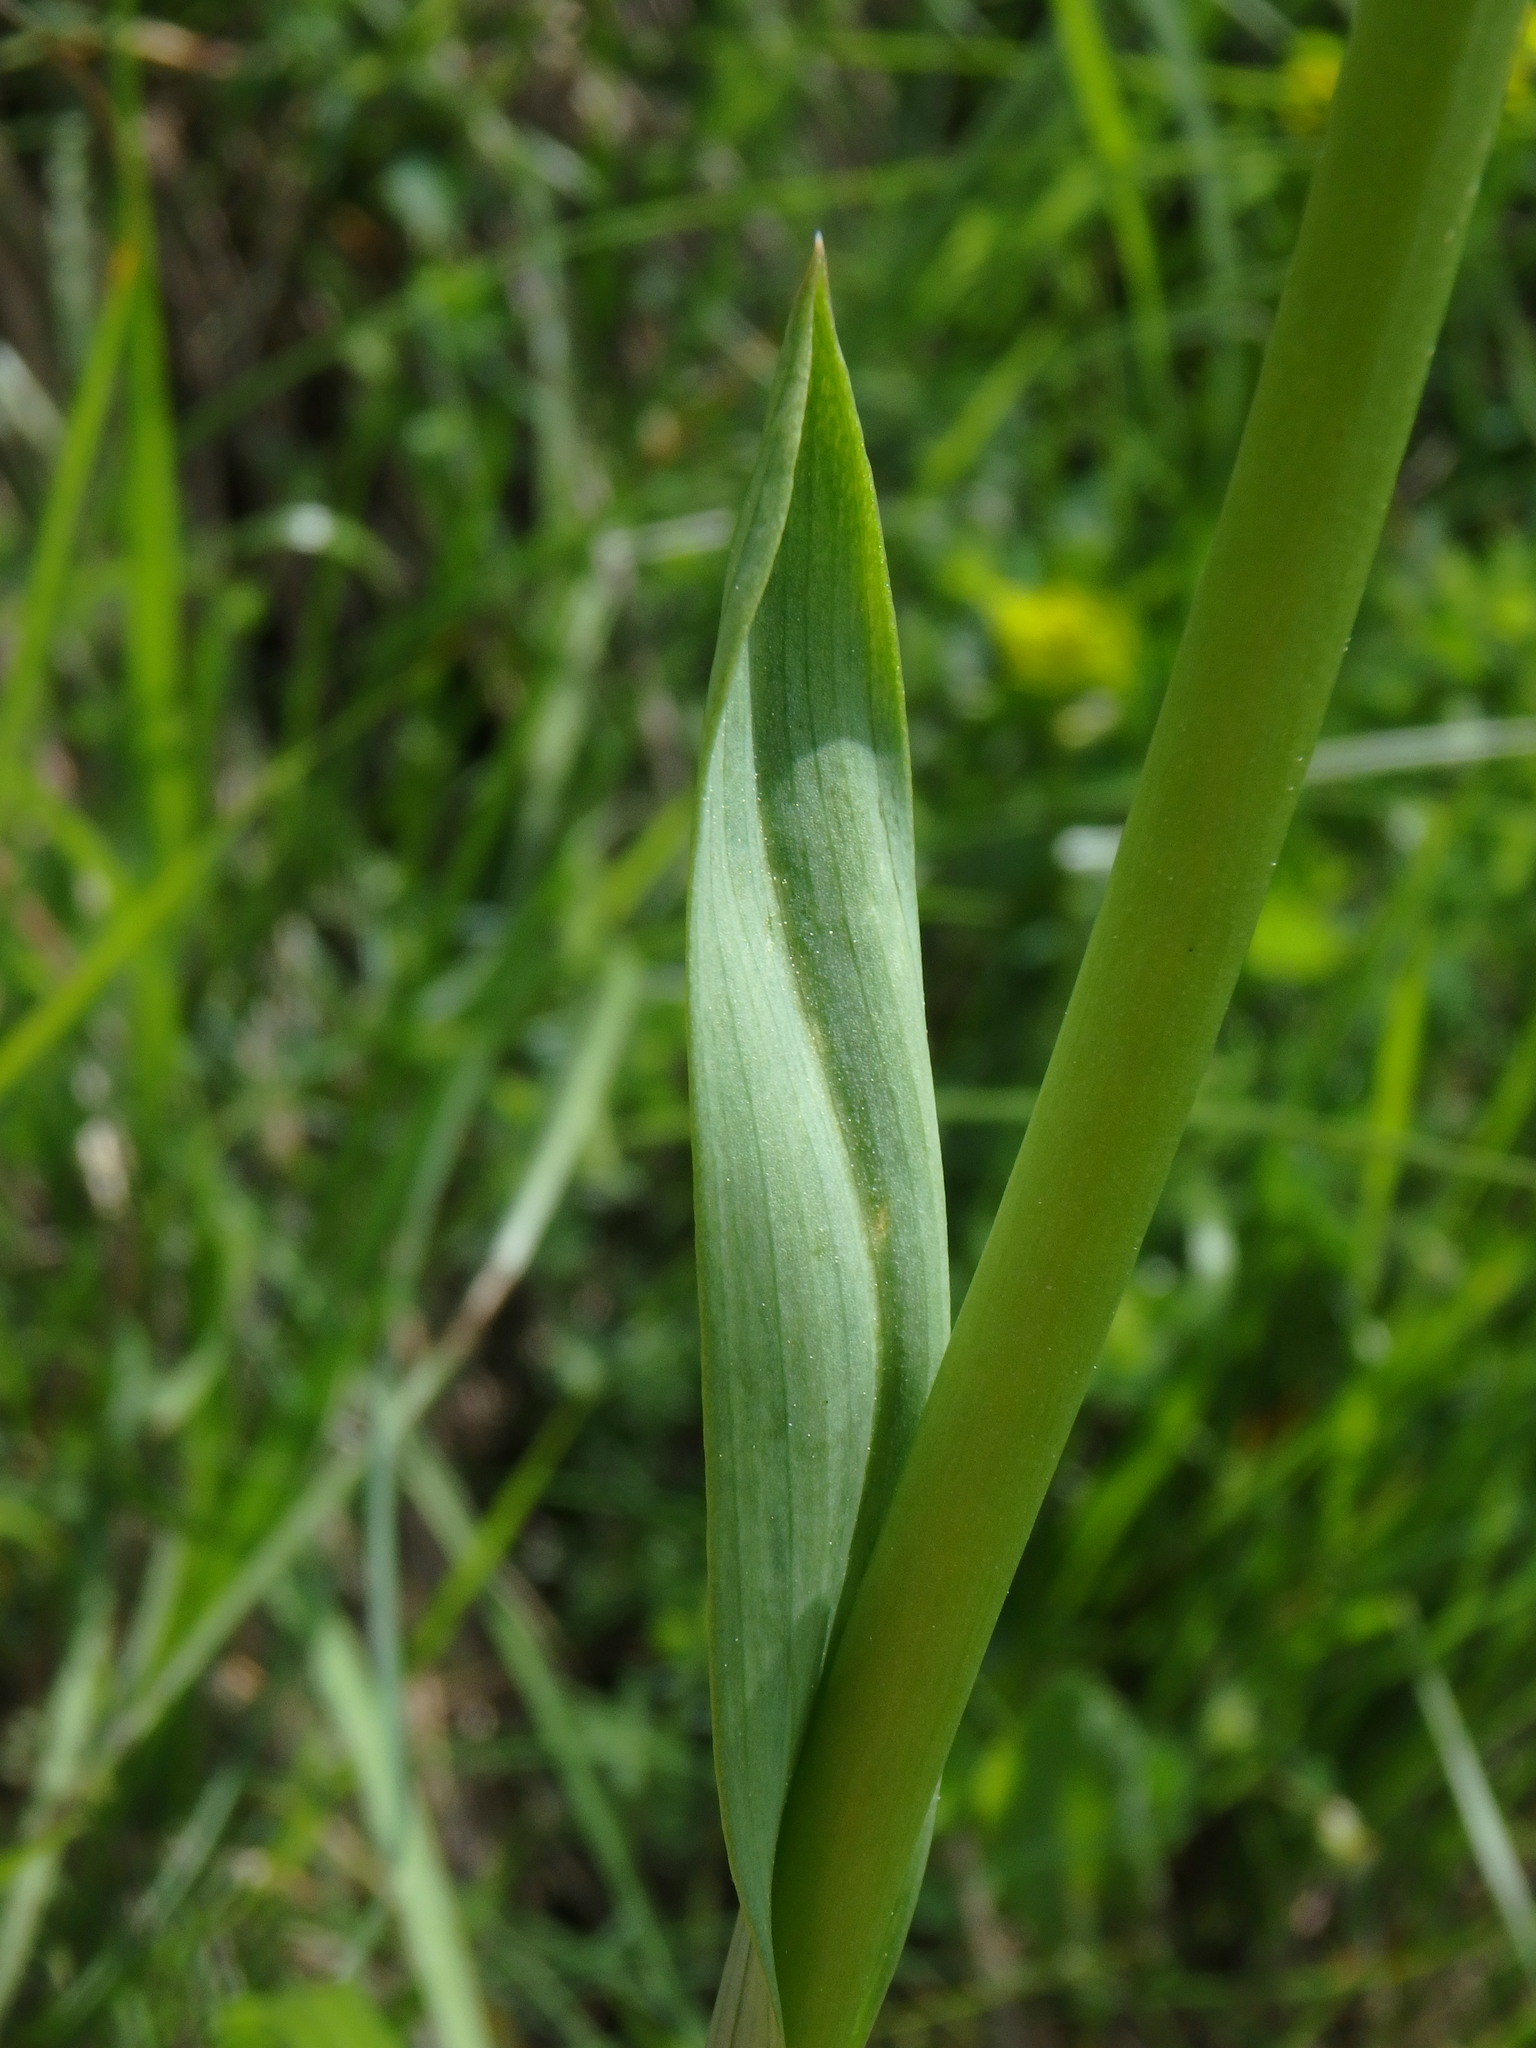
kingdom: Plantae
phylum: Tracheophyta
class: Liliopsida
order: Asparagales
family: Orchidaceae
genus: Traunsteinera
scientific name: Traunsteinera globosa
